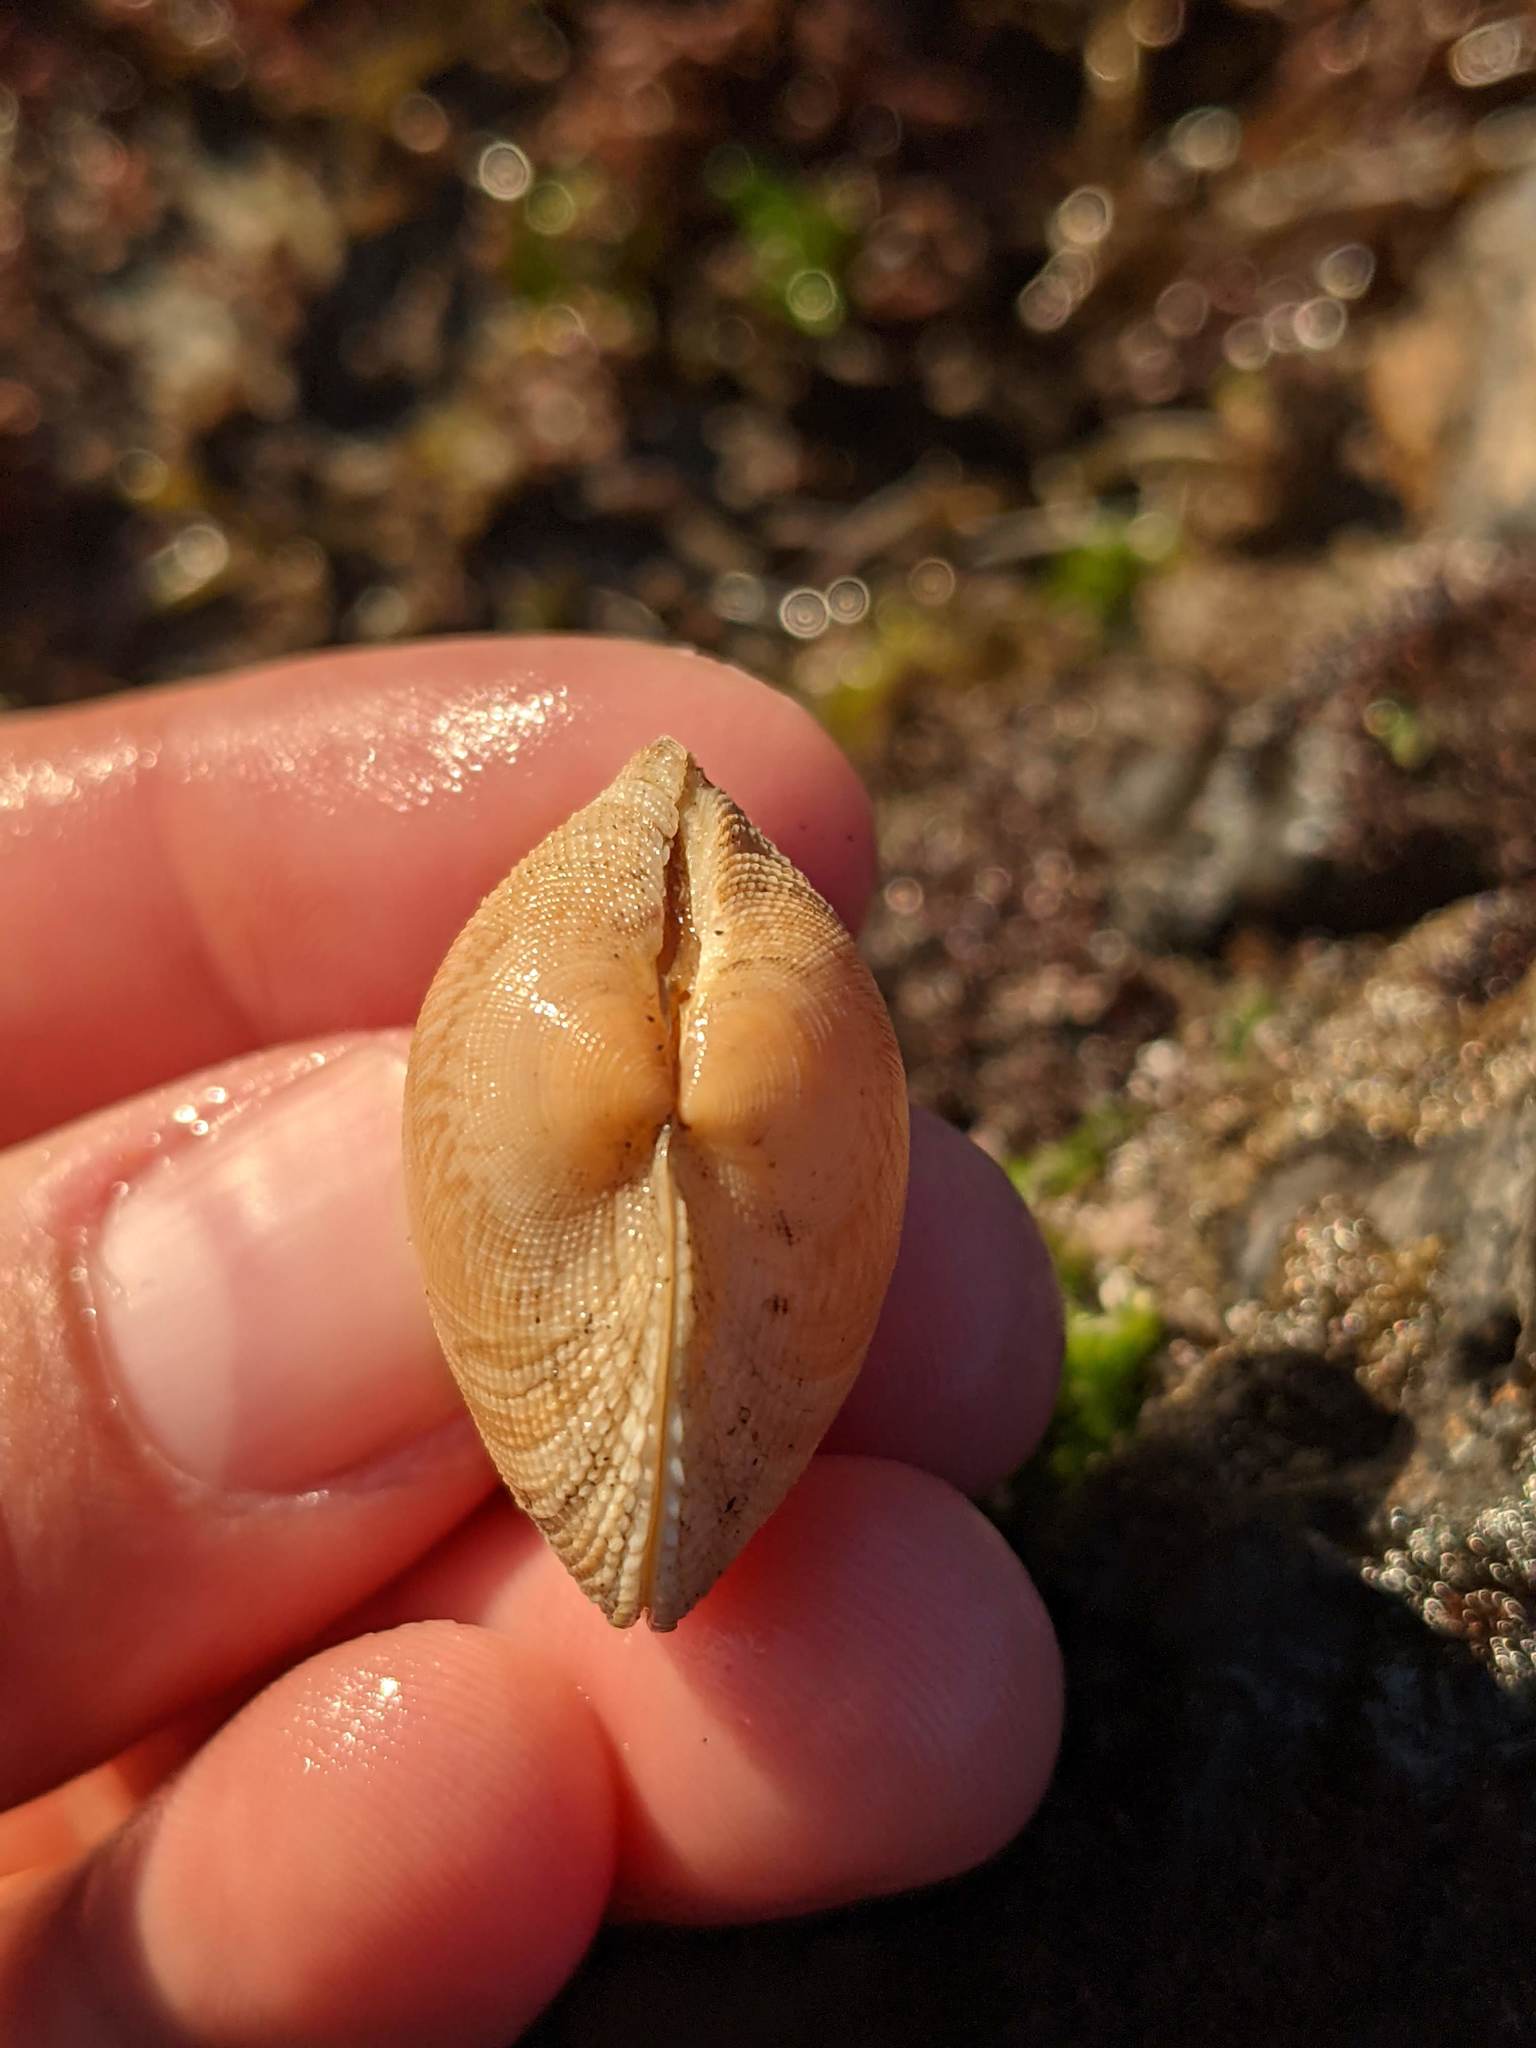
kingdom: Animalia
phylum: Mollusca
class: Bivalvia
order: Venerida
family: Veneridae
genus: Leukoma
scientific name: Leukoma staminea
